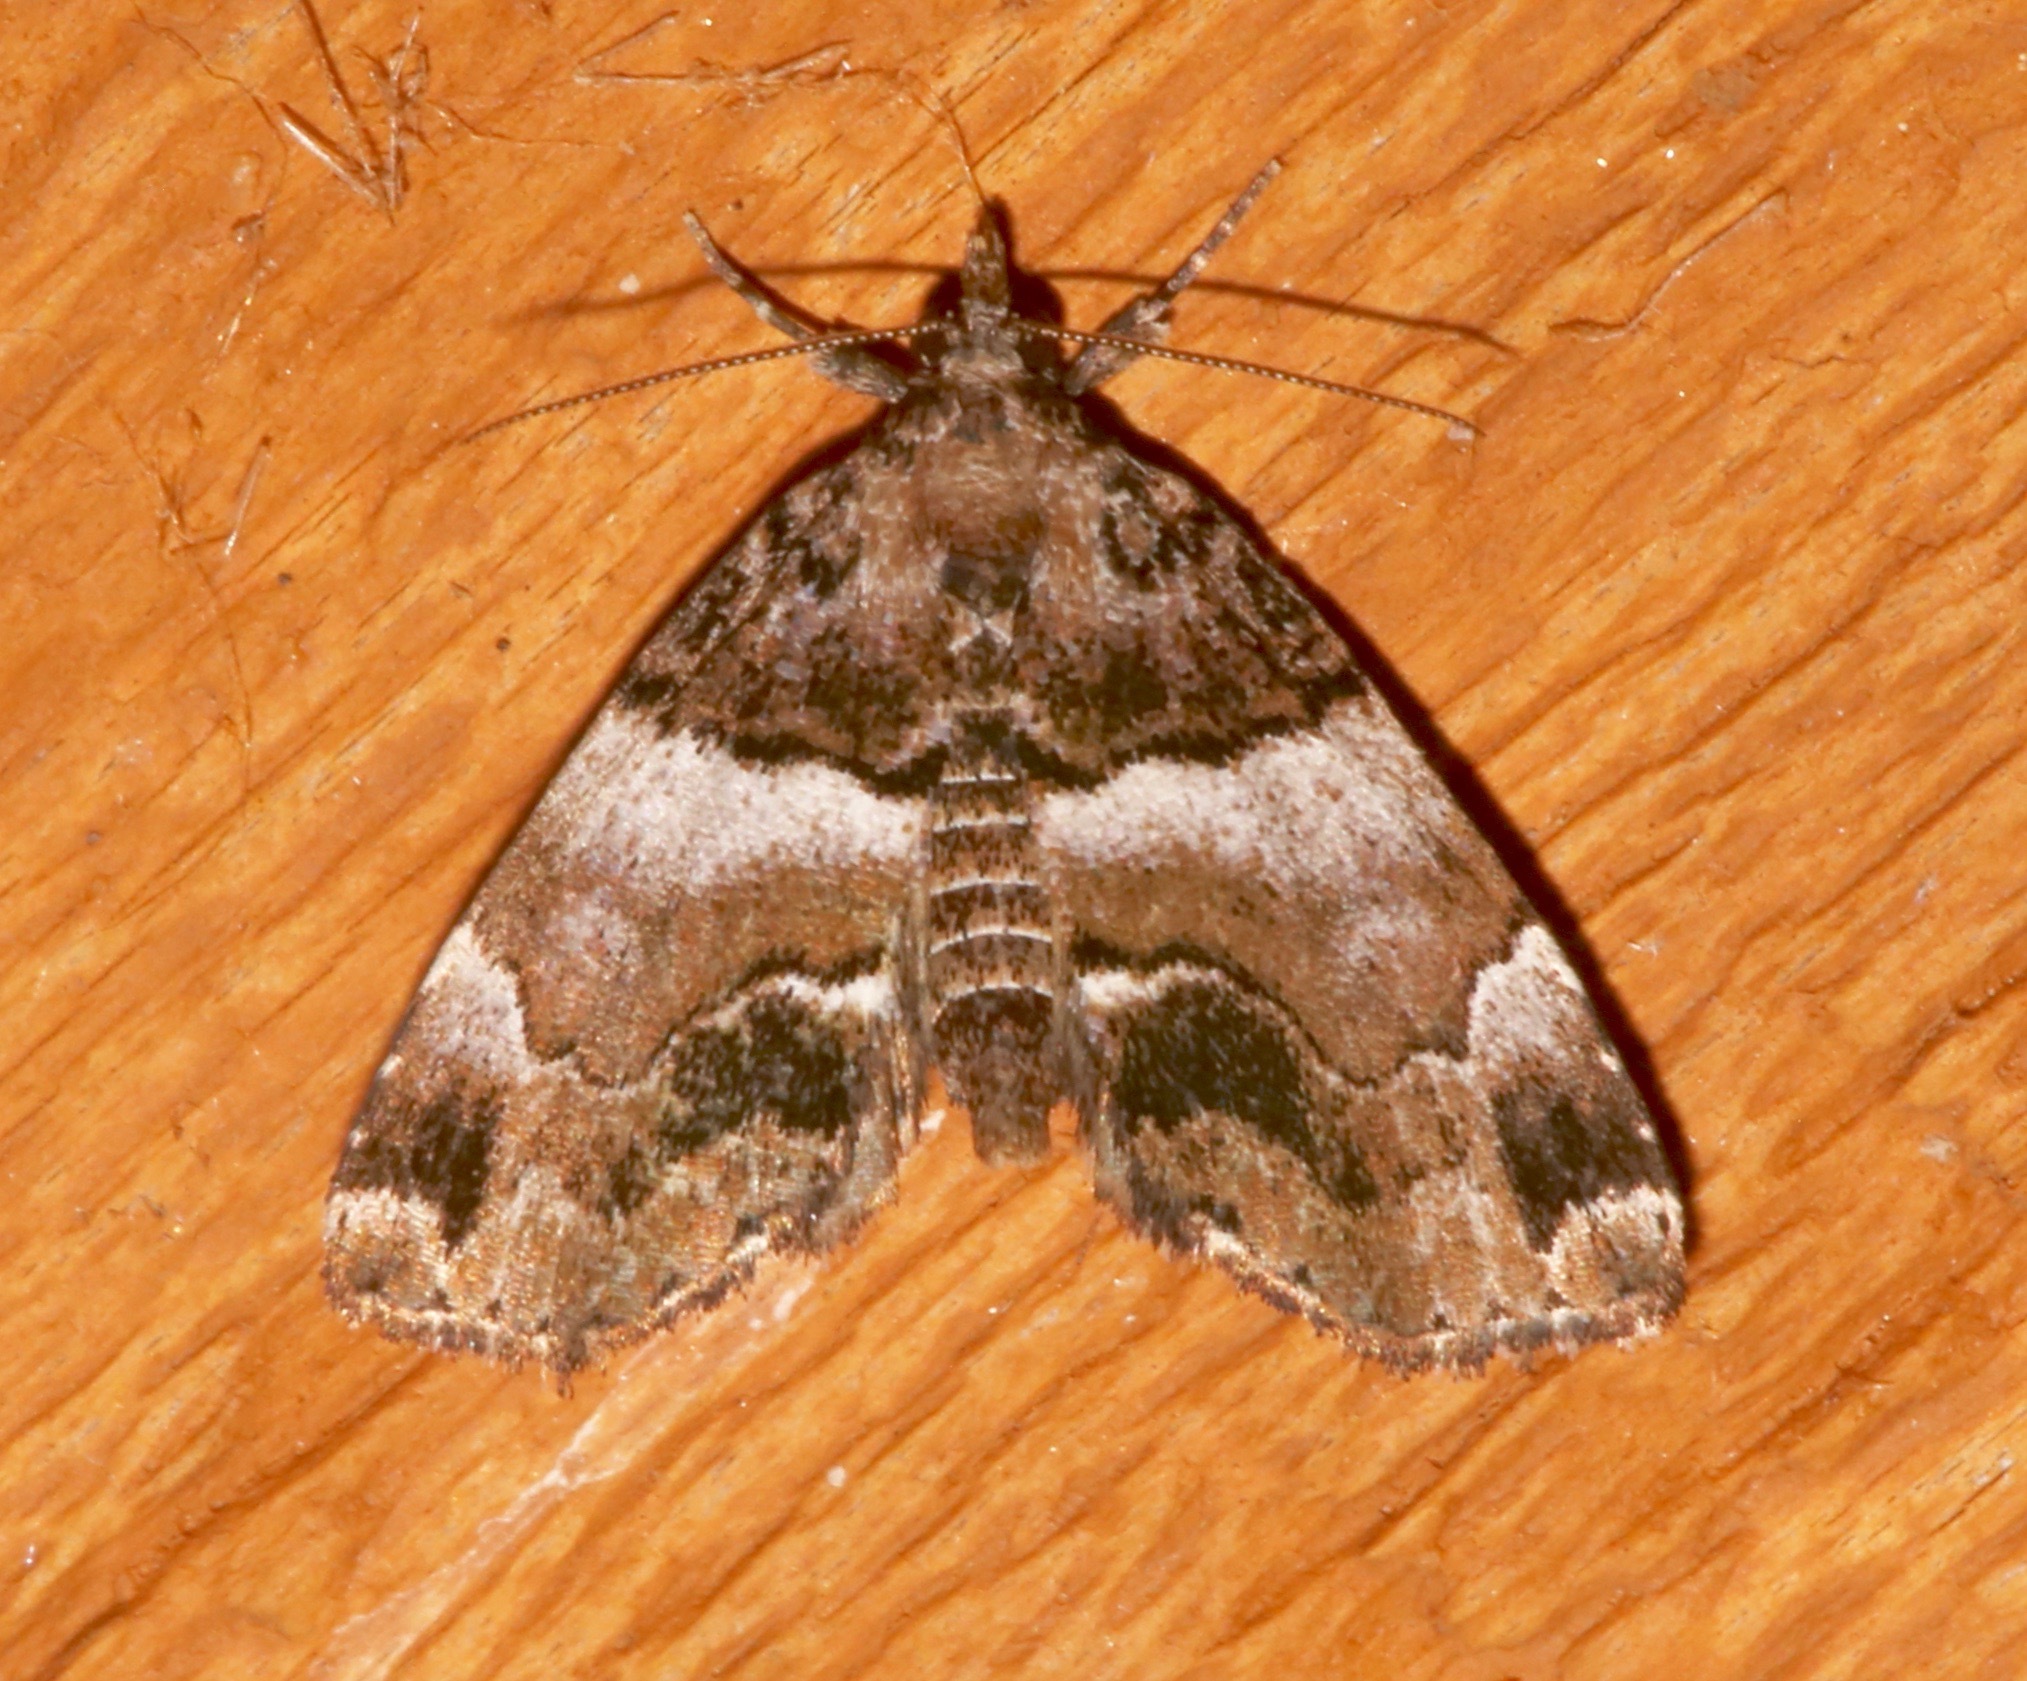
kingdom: Animalia
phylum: Arthropoda
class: Insecta
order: Lepidoptera
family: Erebidae
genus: Cutina
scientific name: Cutina distincta
